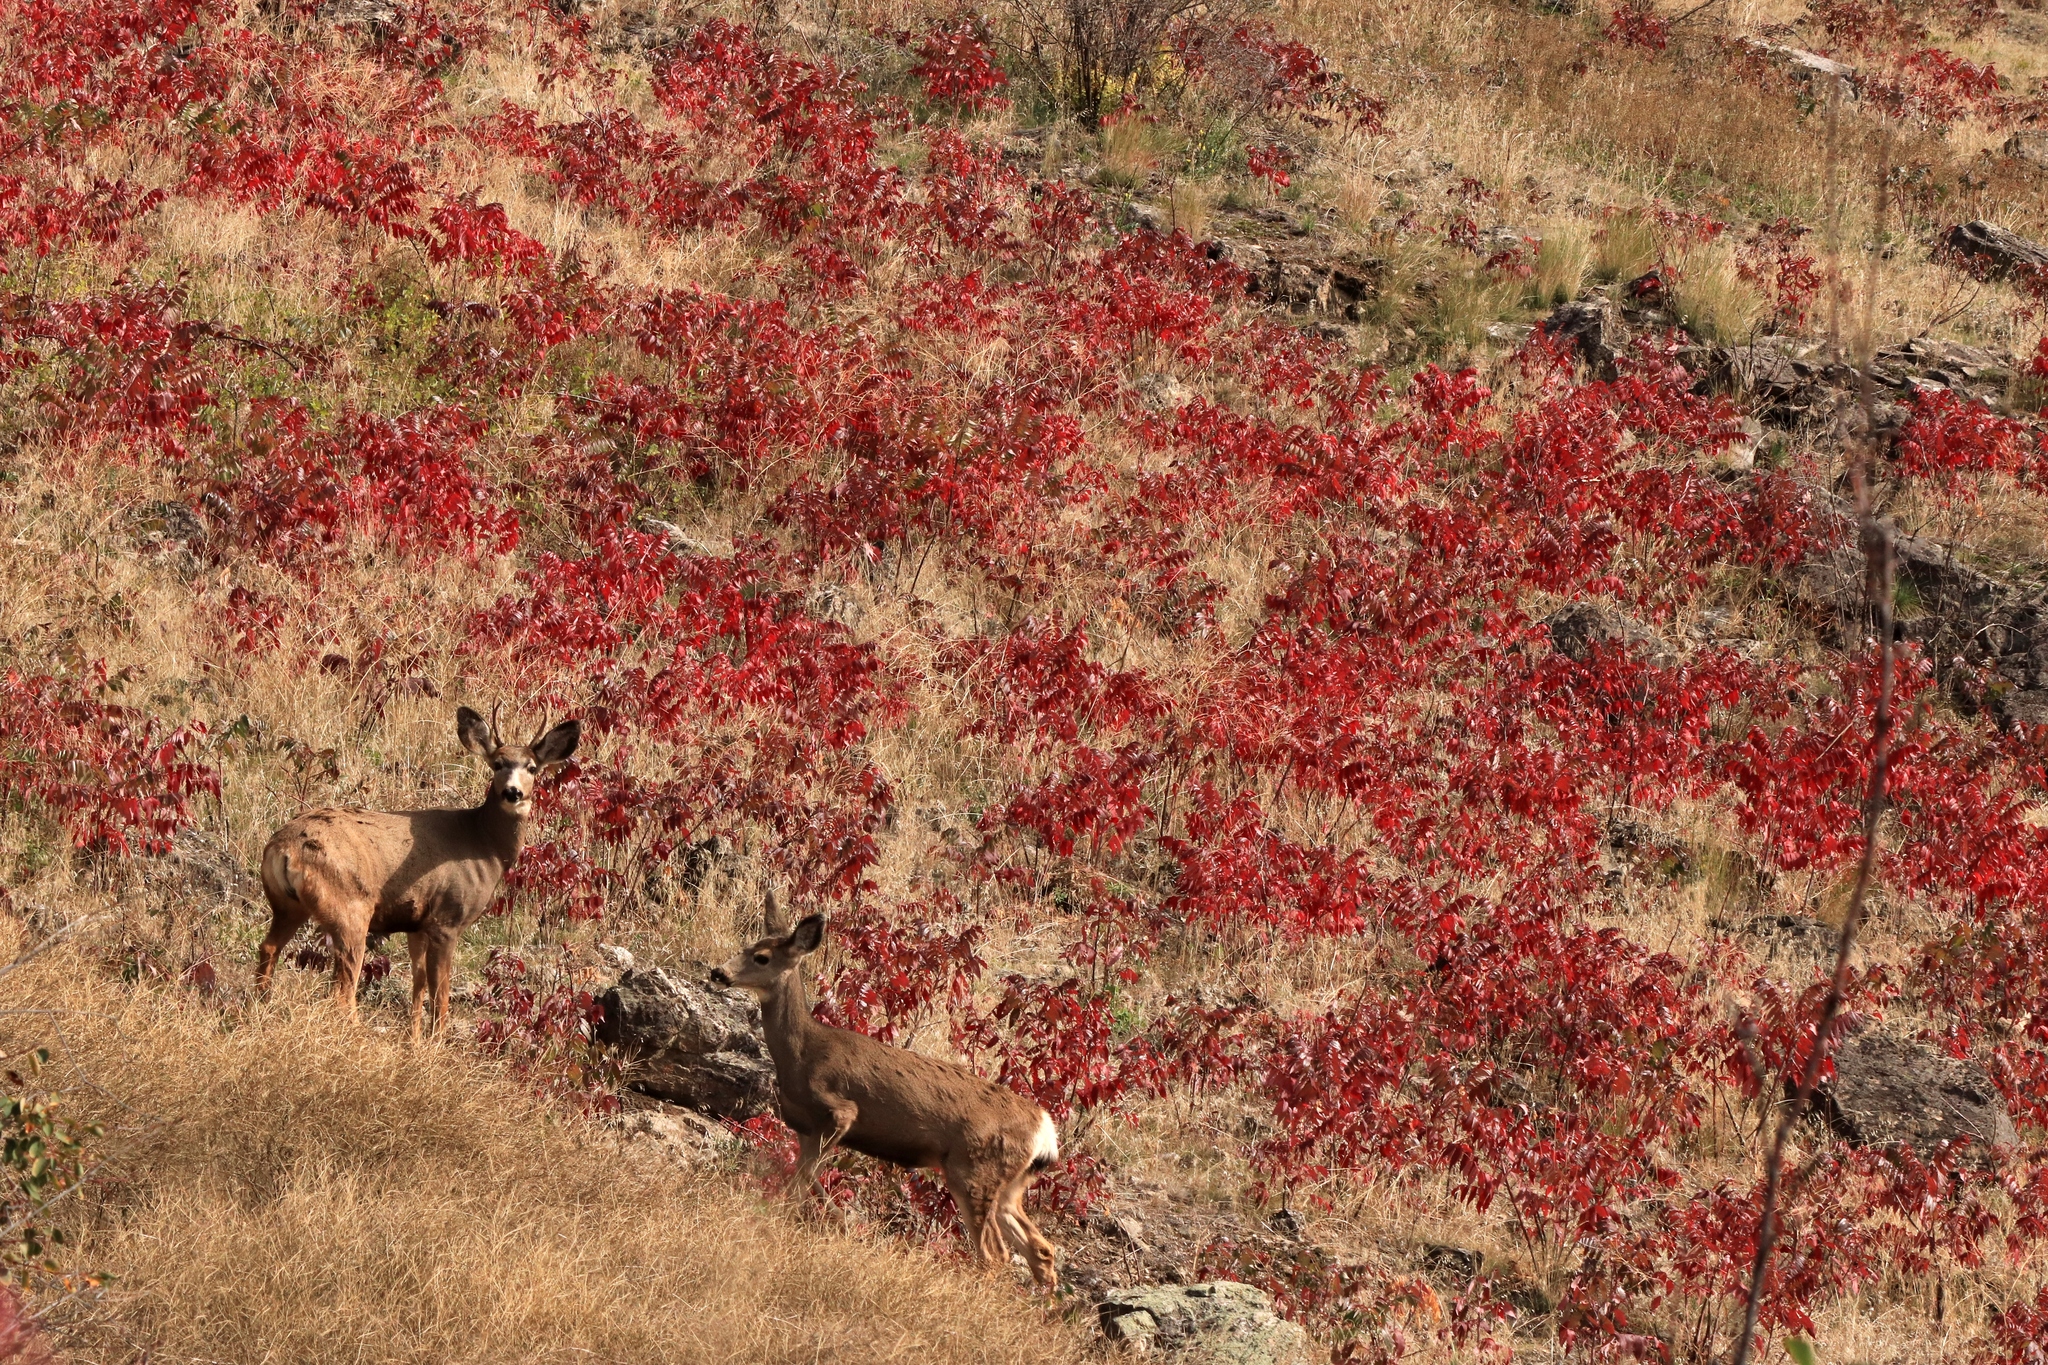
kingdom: Animalia
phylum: Chordata
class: Mammalia
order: Artiodactyla
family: Cervidae
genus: Odocoileus
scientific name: Odocoileus hemionus
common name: Mule deer
